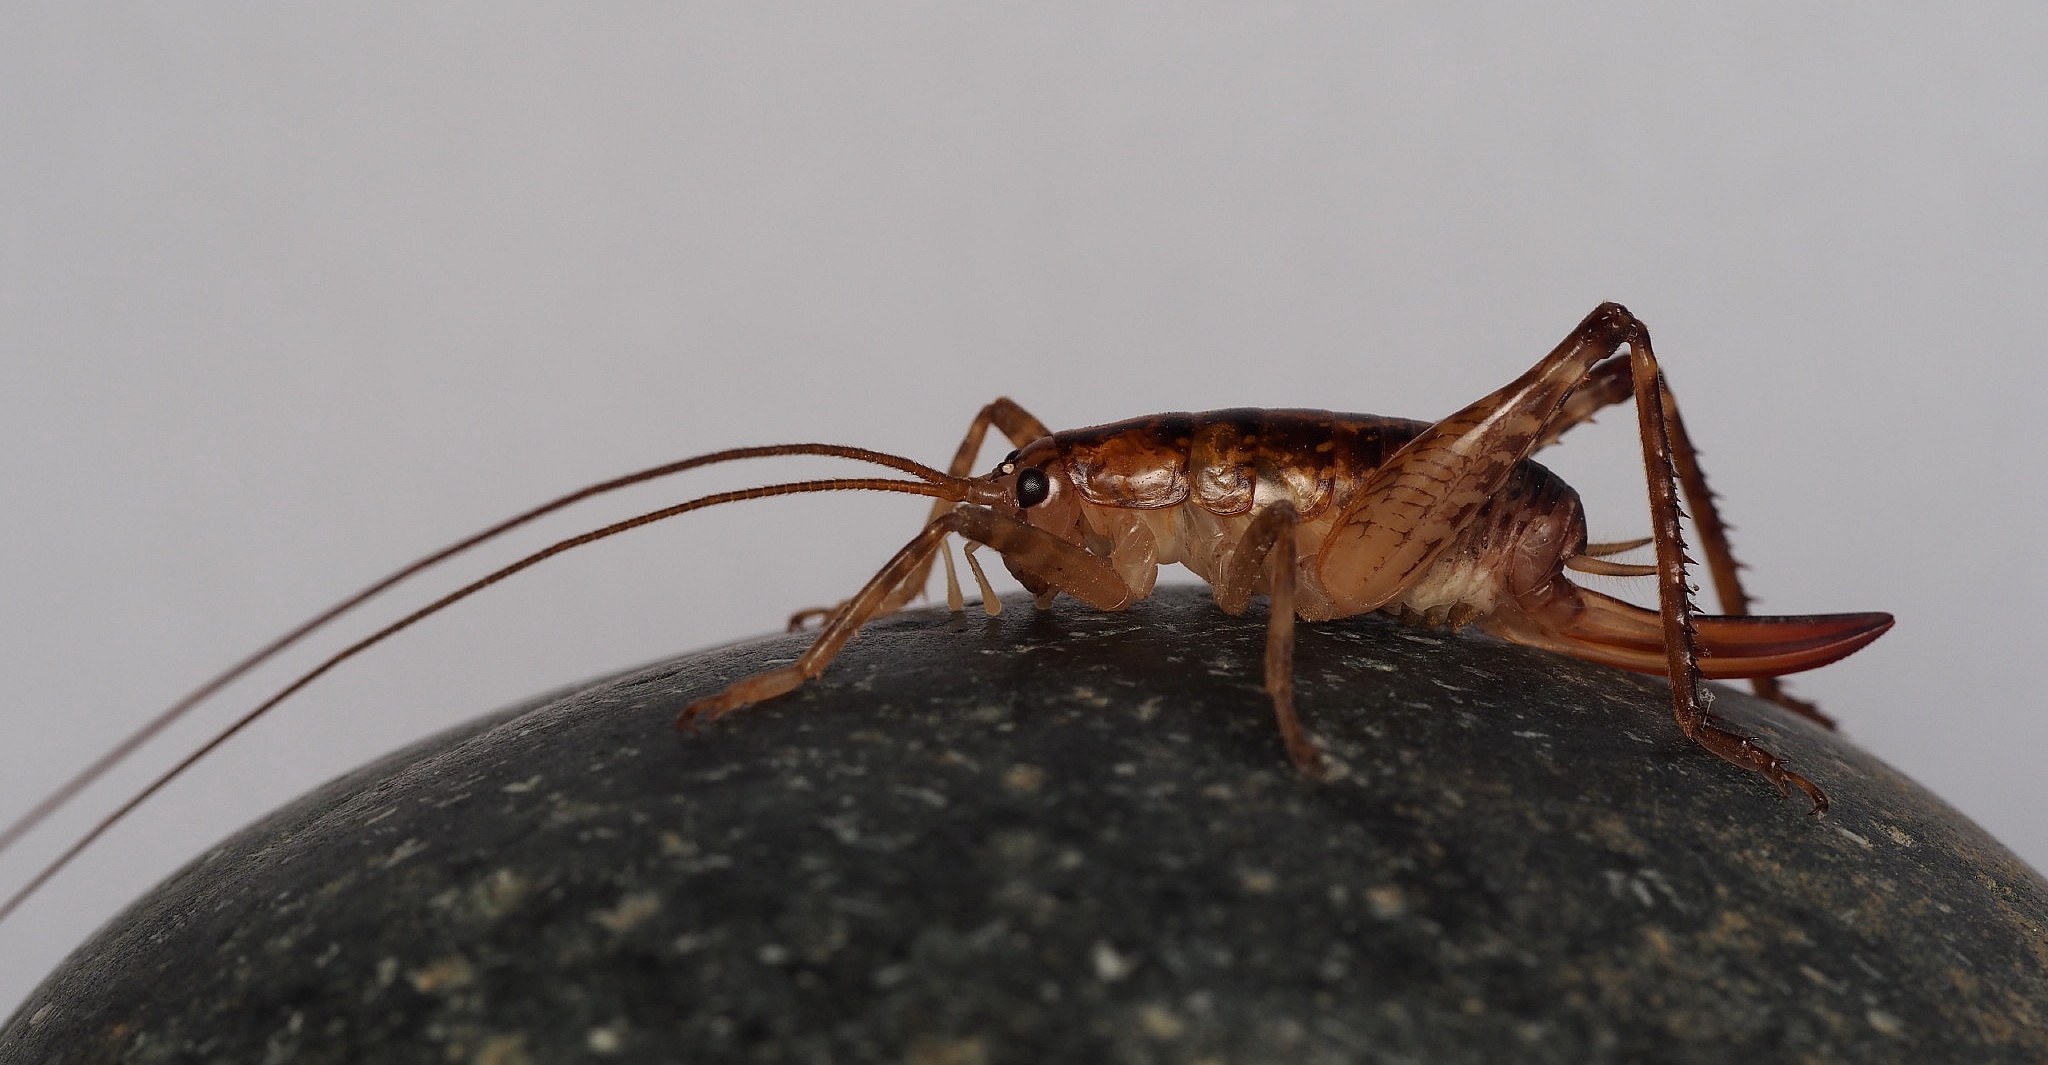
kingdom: Animalia
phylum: Arthropoda
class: Insecta
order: Orthoptera
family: Rhaphidophoridae
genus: Talitropsis
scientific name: Talitropsis sedilloti
